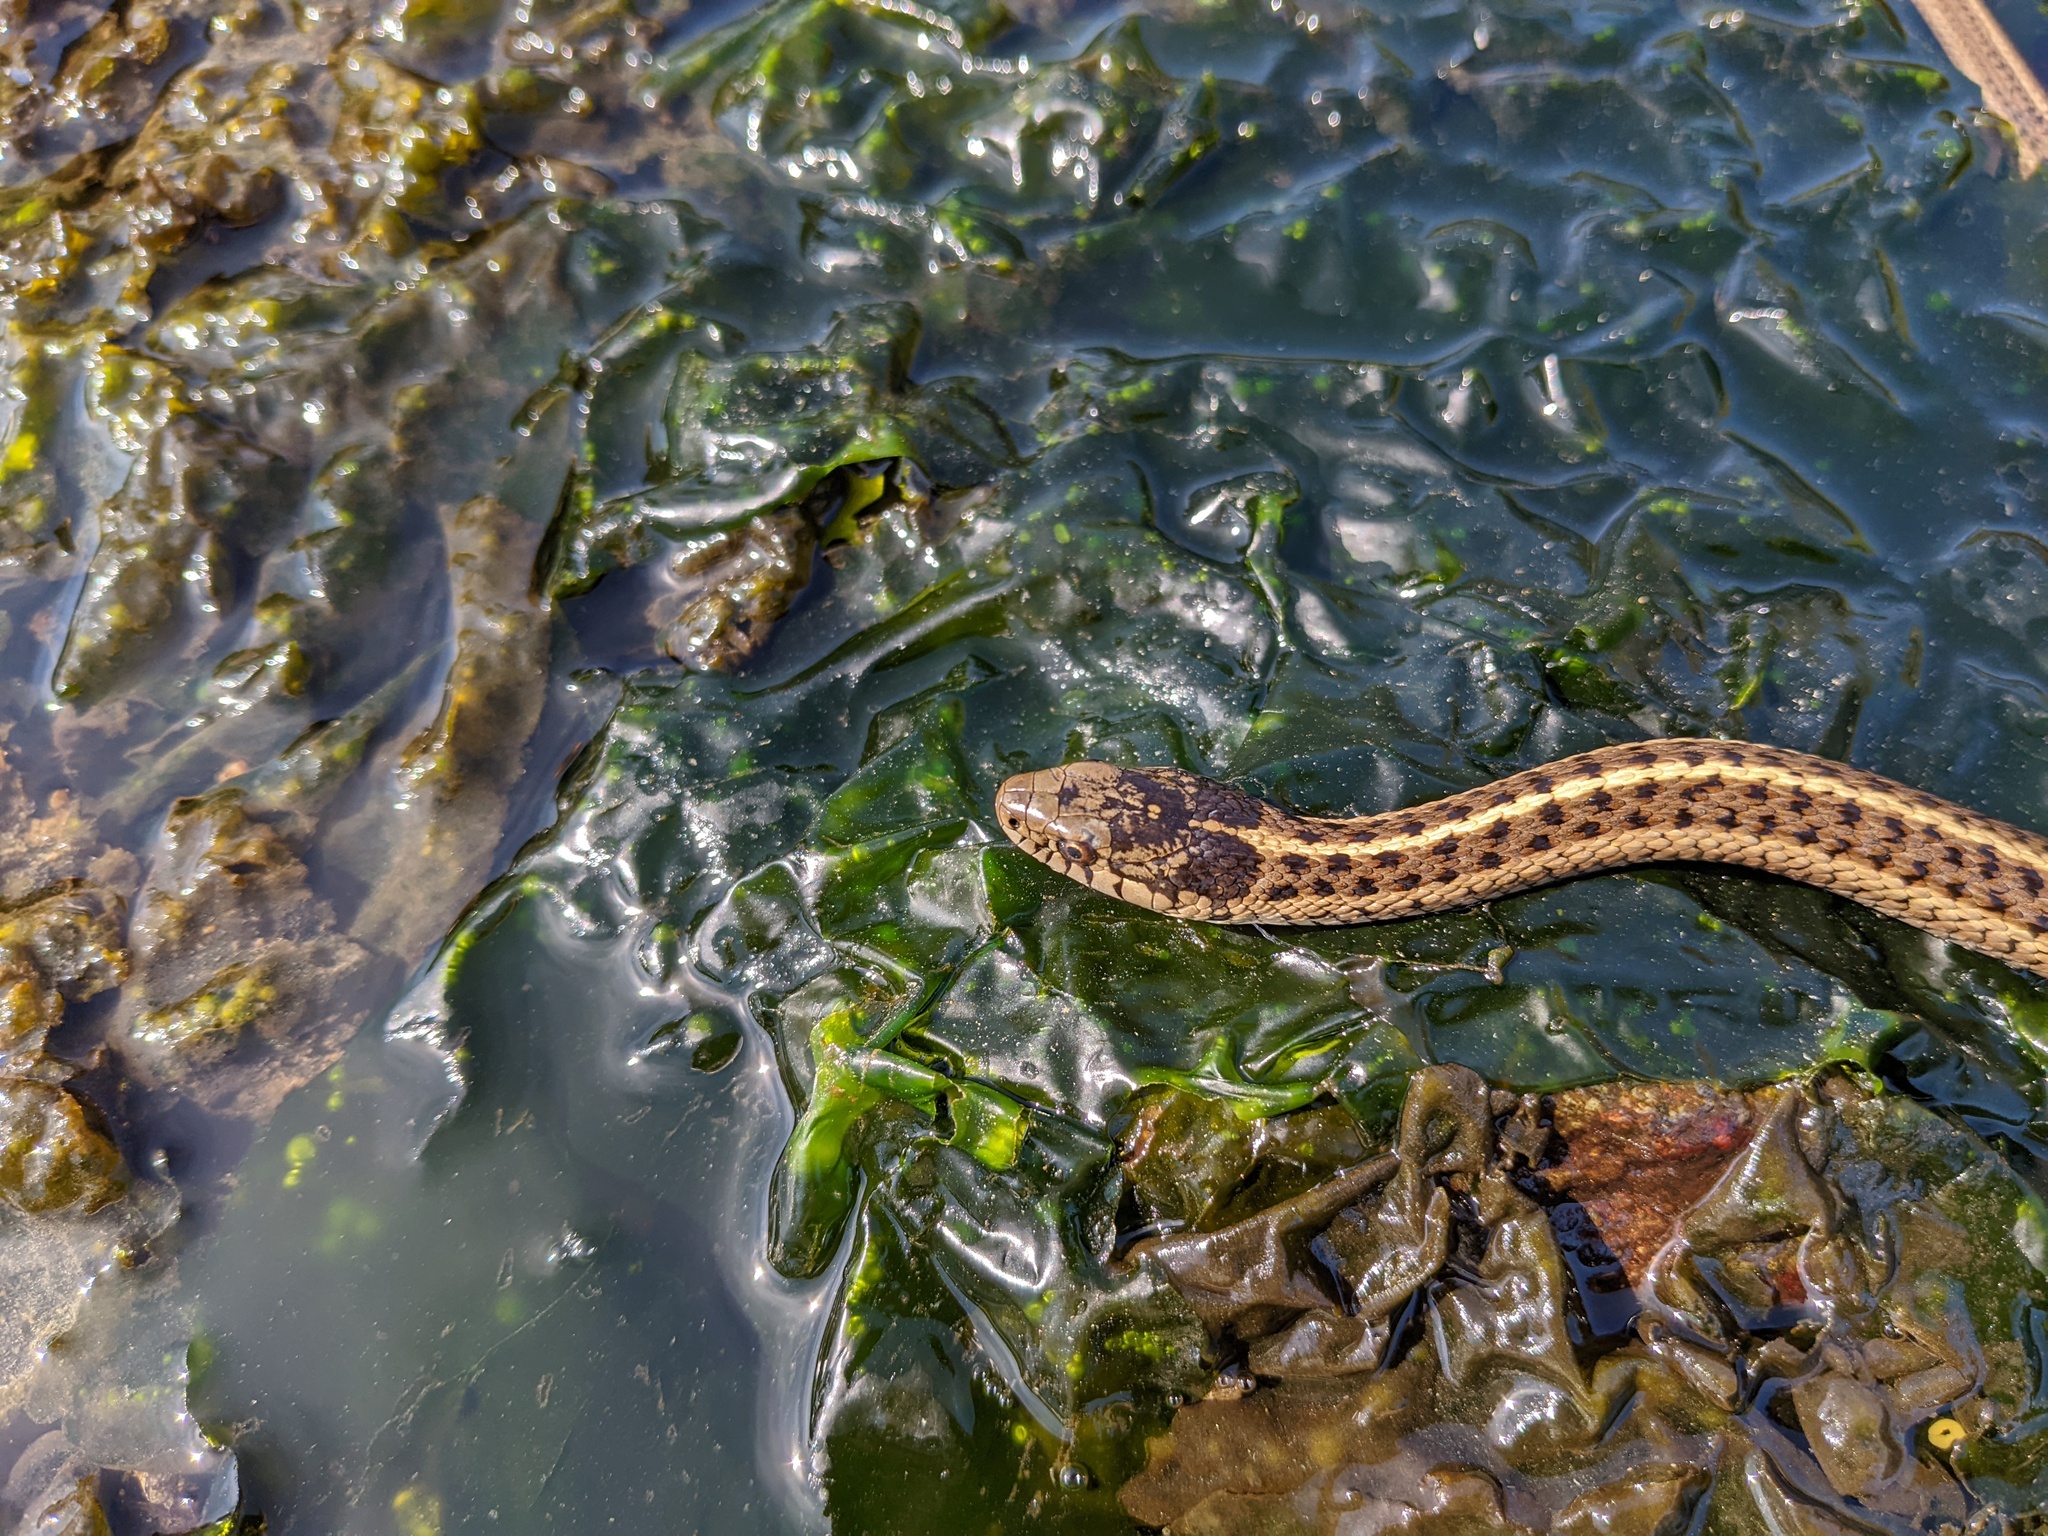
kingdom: Animalia
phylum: Chordata
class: Squamata
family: Colubridae
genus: Thamnophis
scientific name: Thamnophis ordinoides
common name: Northwestern garter snake
